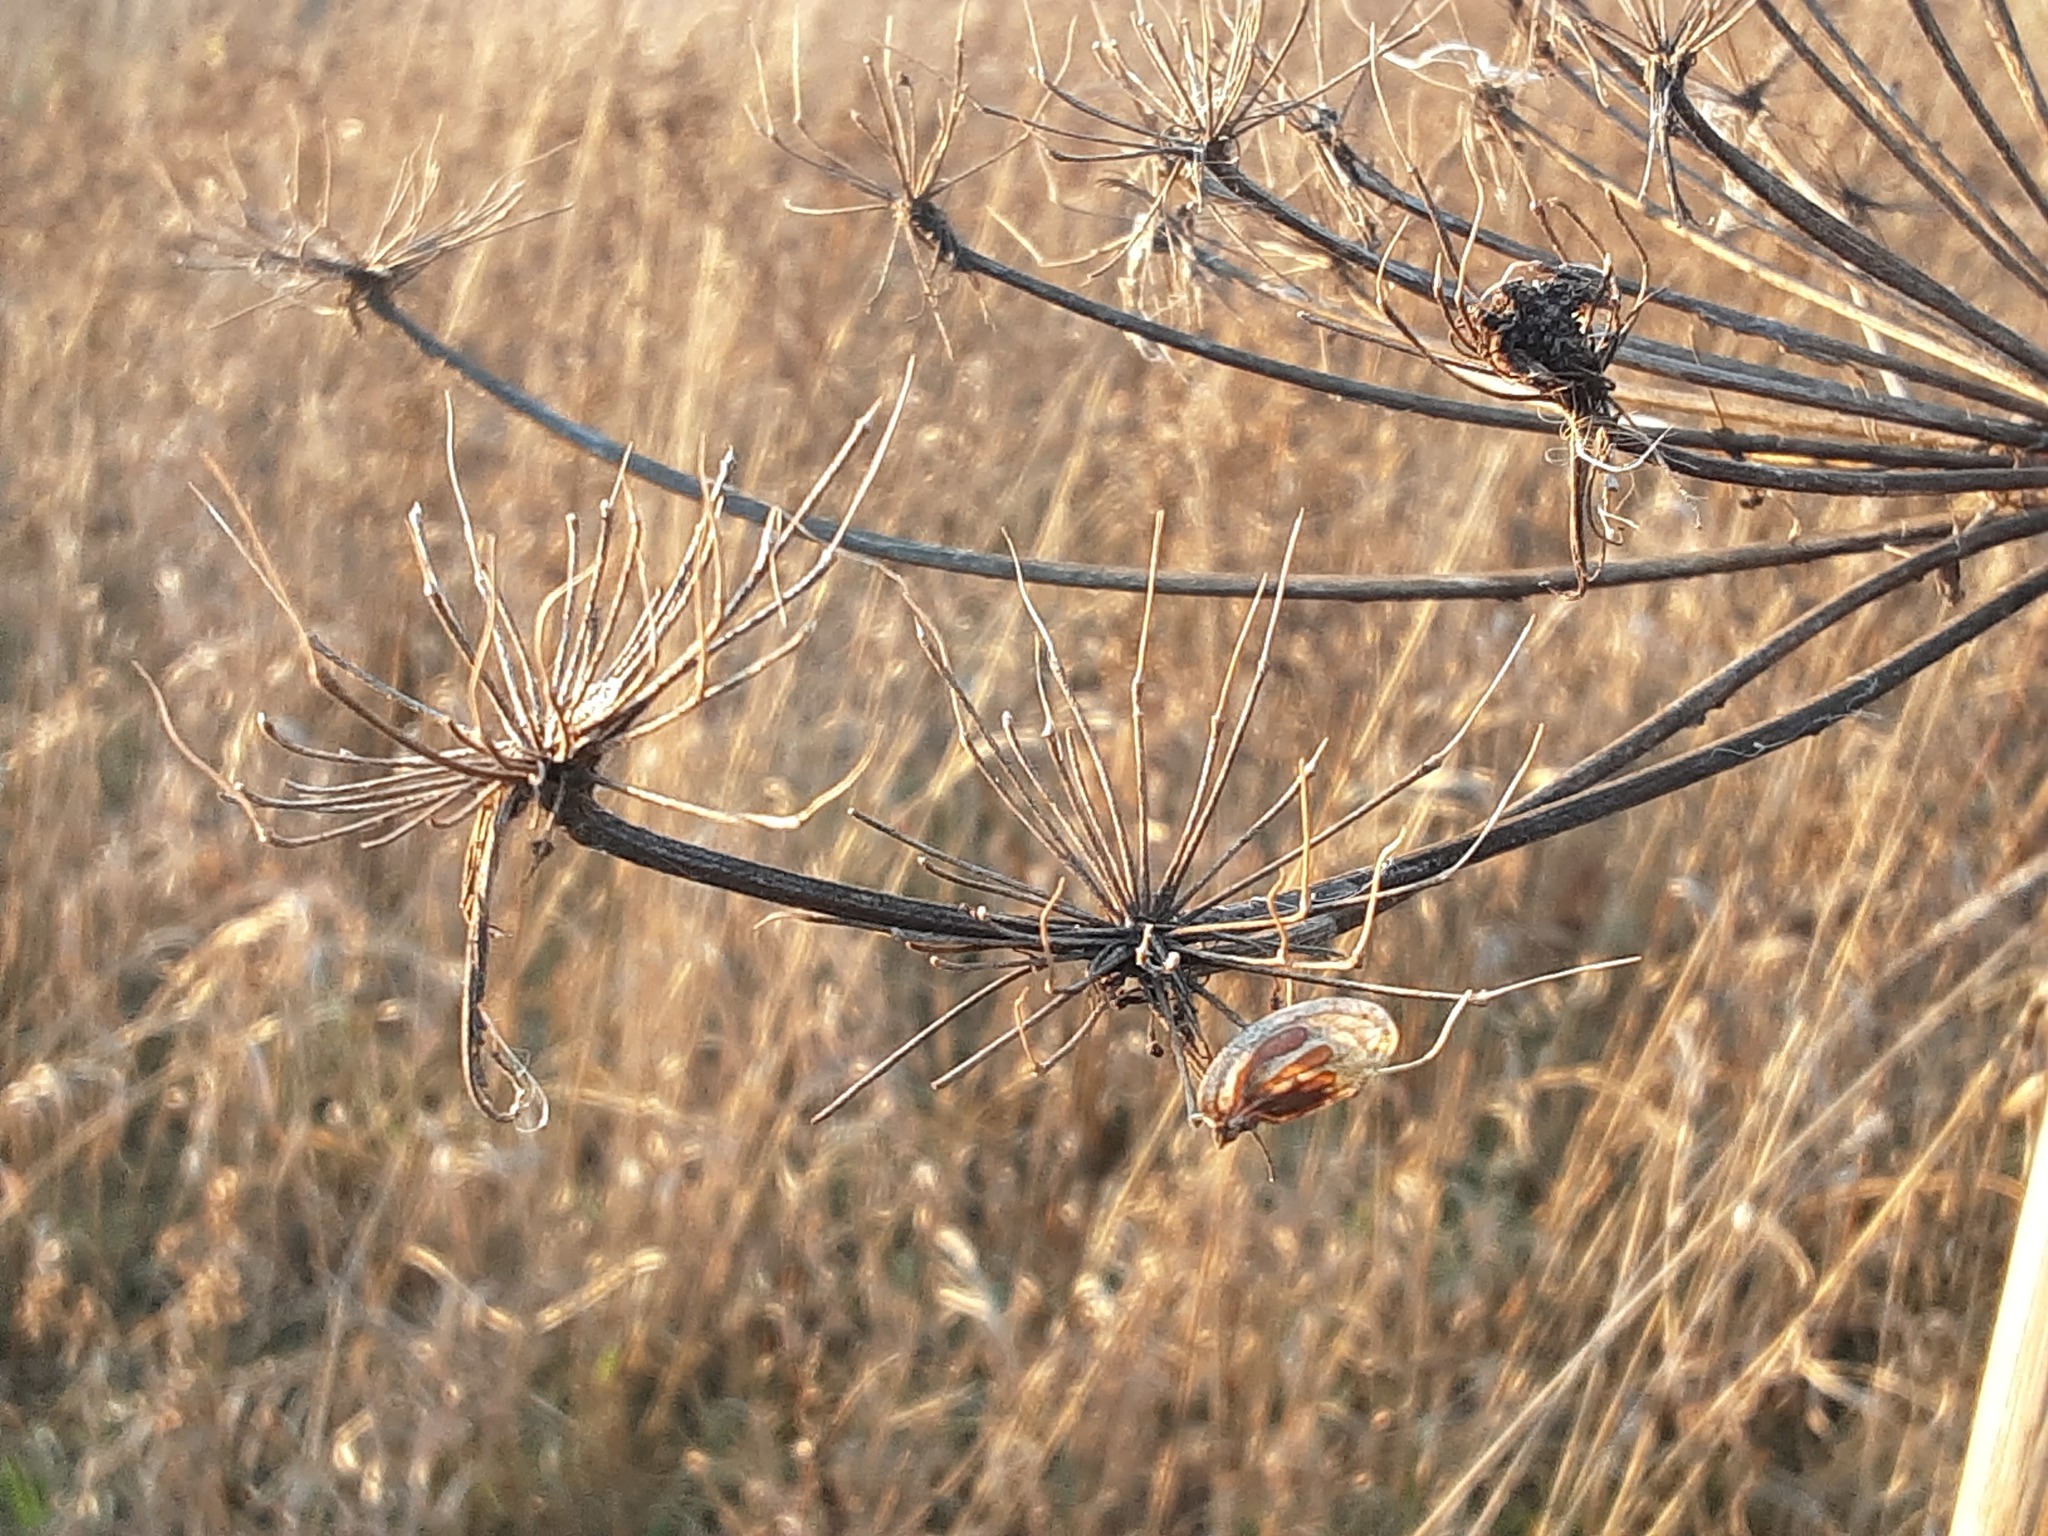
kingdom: Plantae
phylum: Tracheophyta
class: Magnoliopsida
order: Apiales
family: Apiaceae
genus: Heracleum
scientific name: Heracleum sosnowskyi
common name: Sosnowsky's hogweed
